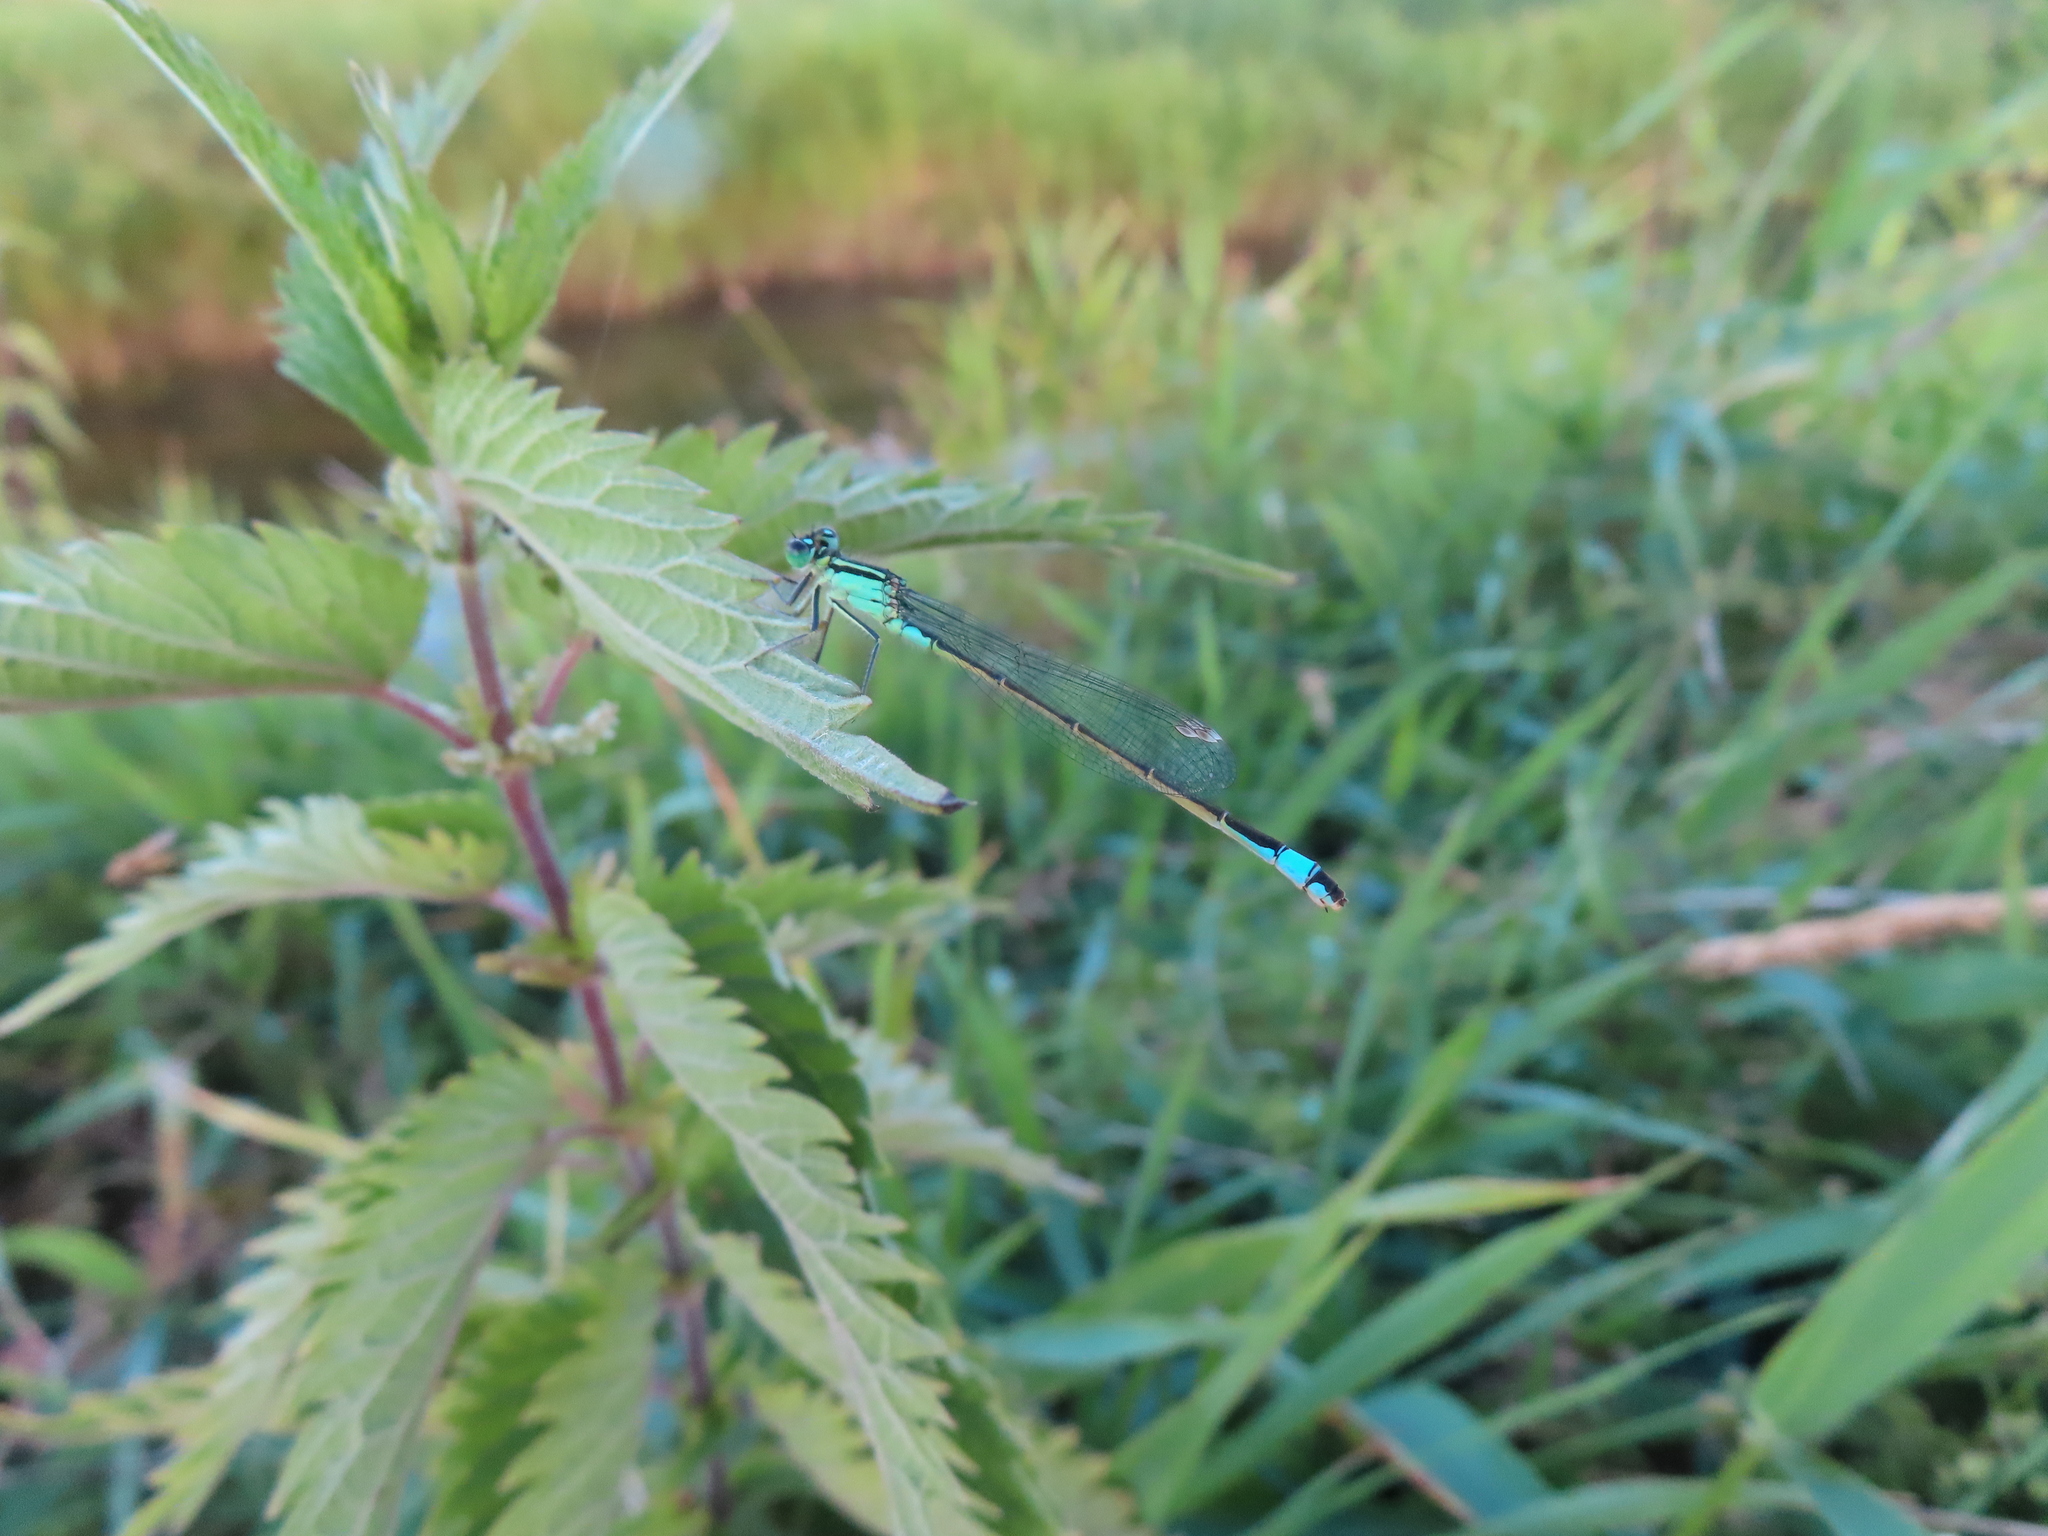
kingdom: Animalia
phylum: Arthropoda
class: Insecta
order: Odonata
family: Coenagrionidae
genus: Ischnura
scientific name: Ischnura elegans
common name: Blue-tailed damselfly
